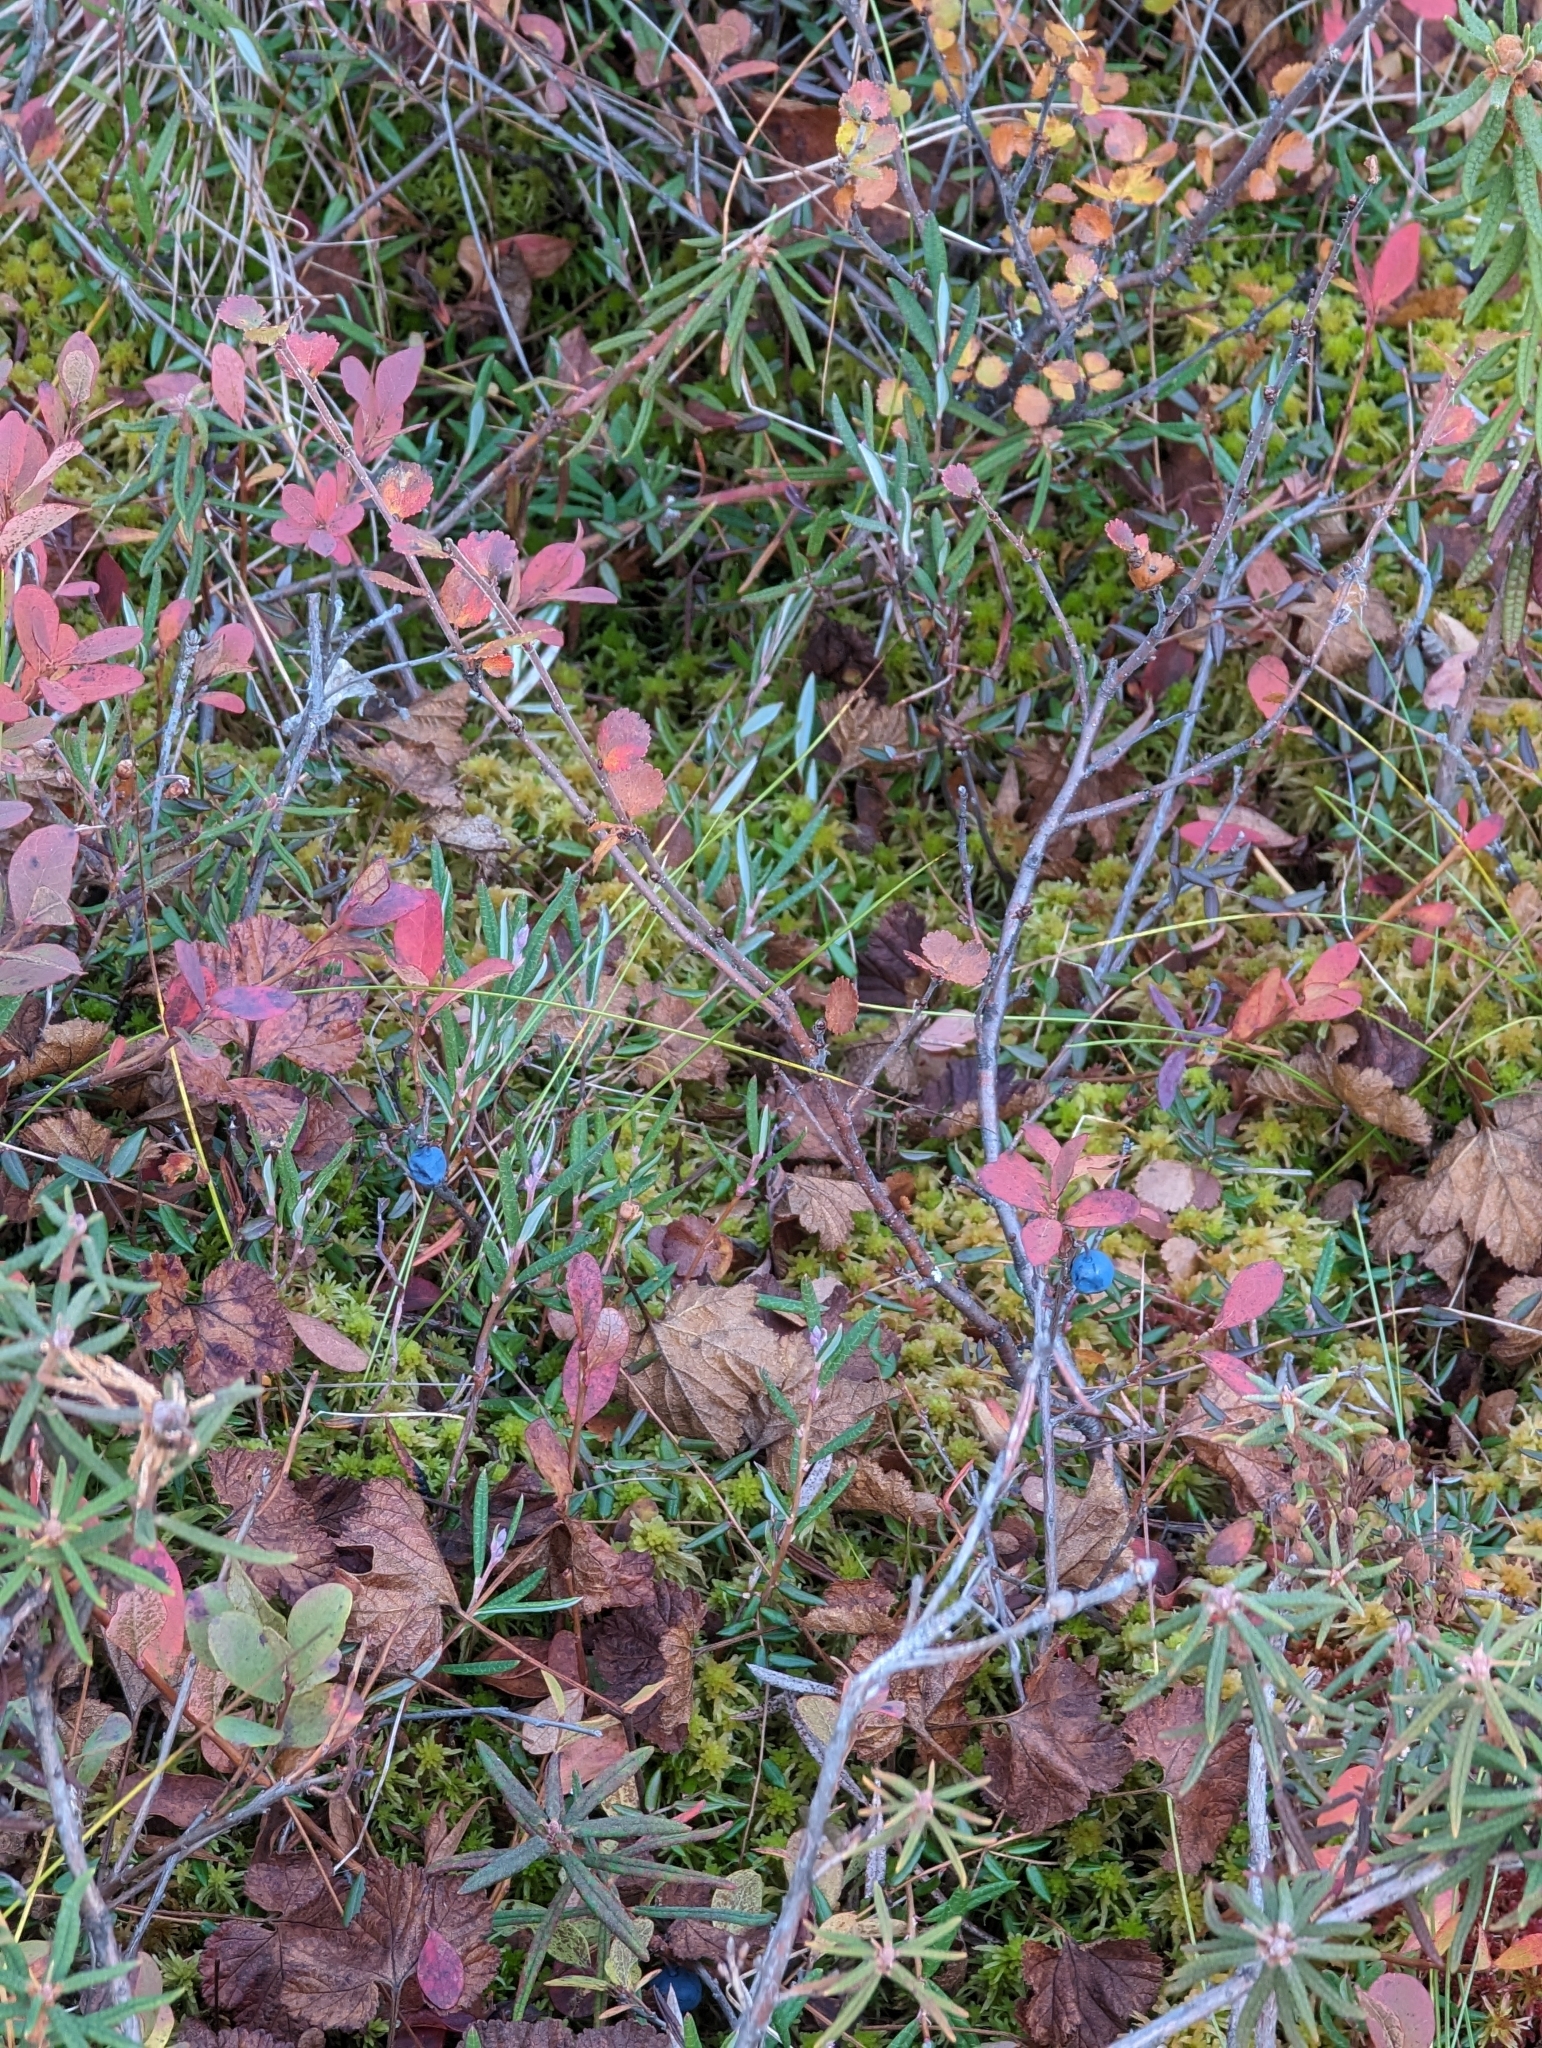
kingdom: Plantae
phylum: Tracheophyta
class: Magnoliopsida
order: Ericales
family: Ericaceae
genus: Vaccinium
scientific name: Vaccinium uliginosum
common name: Bog bilberry
